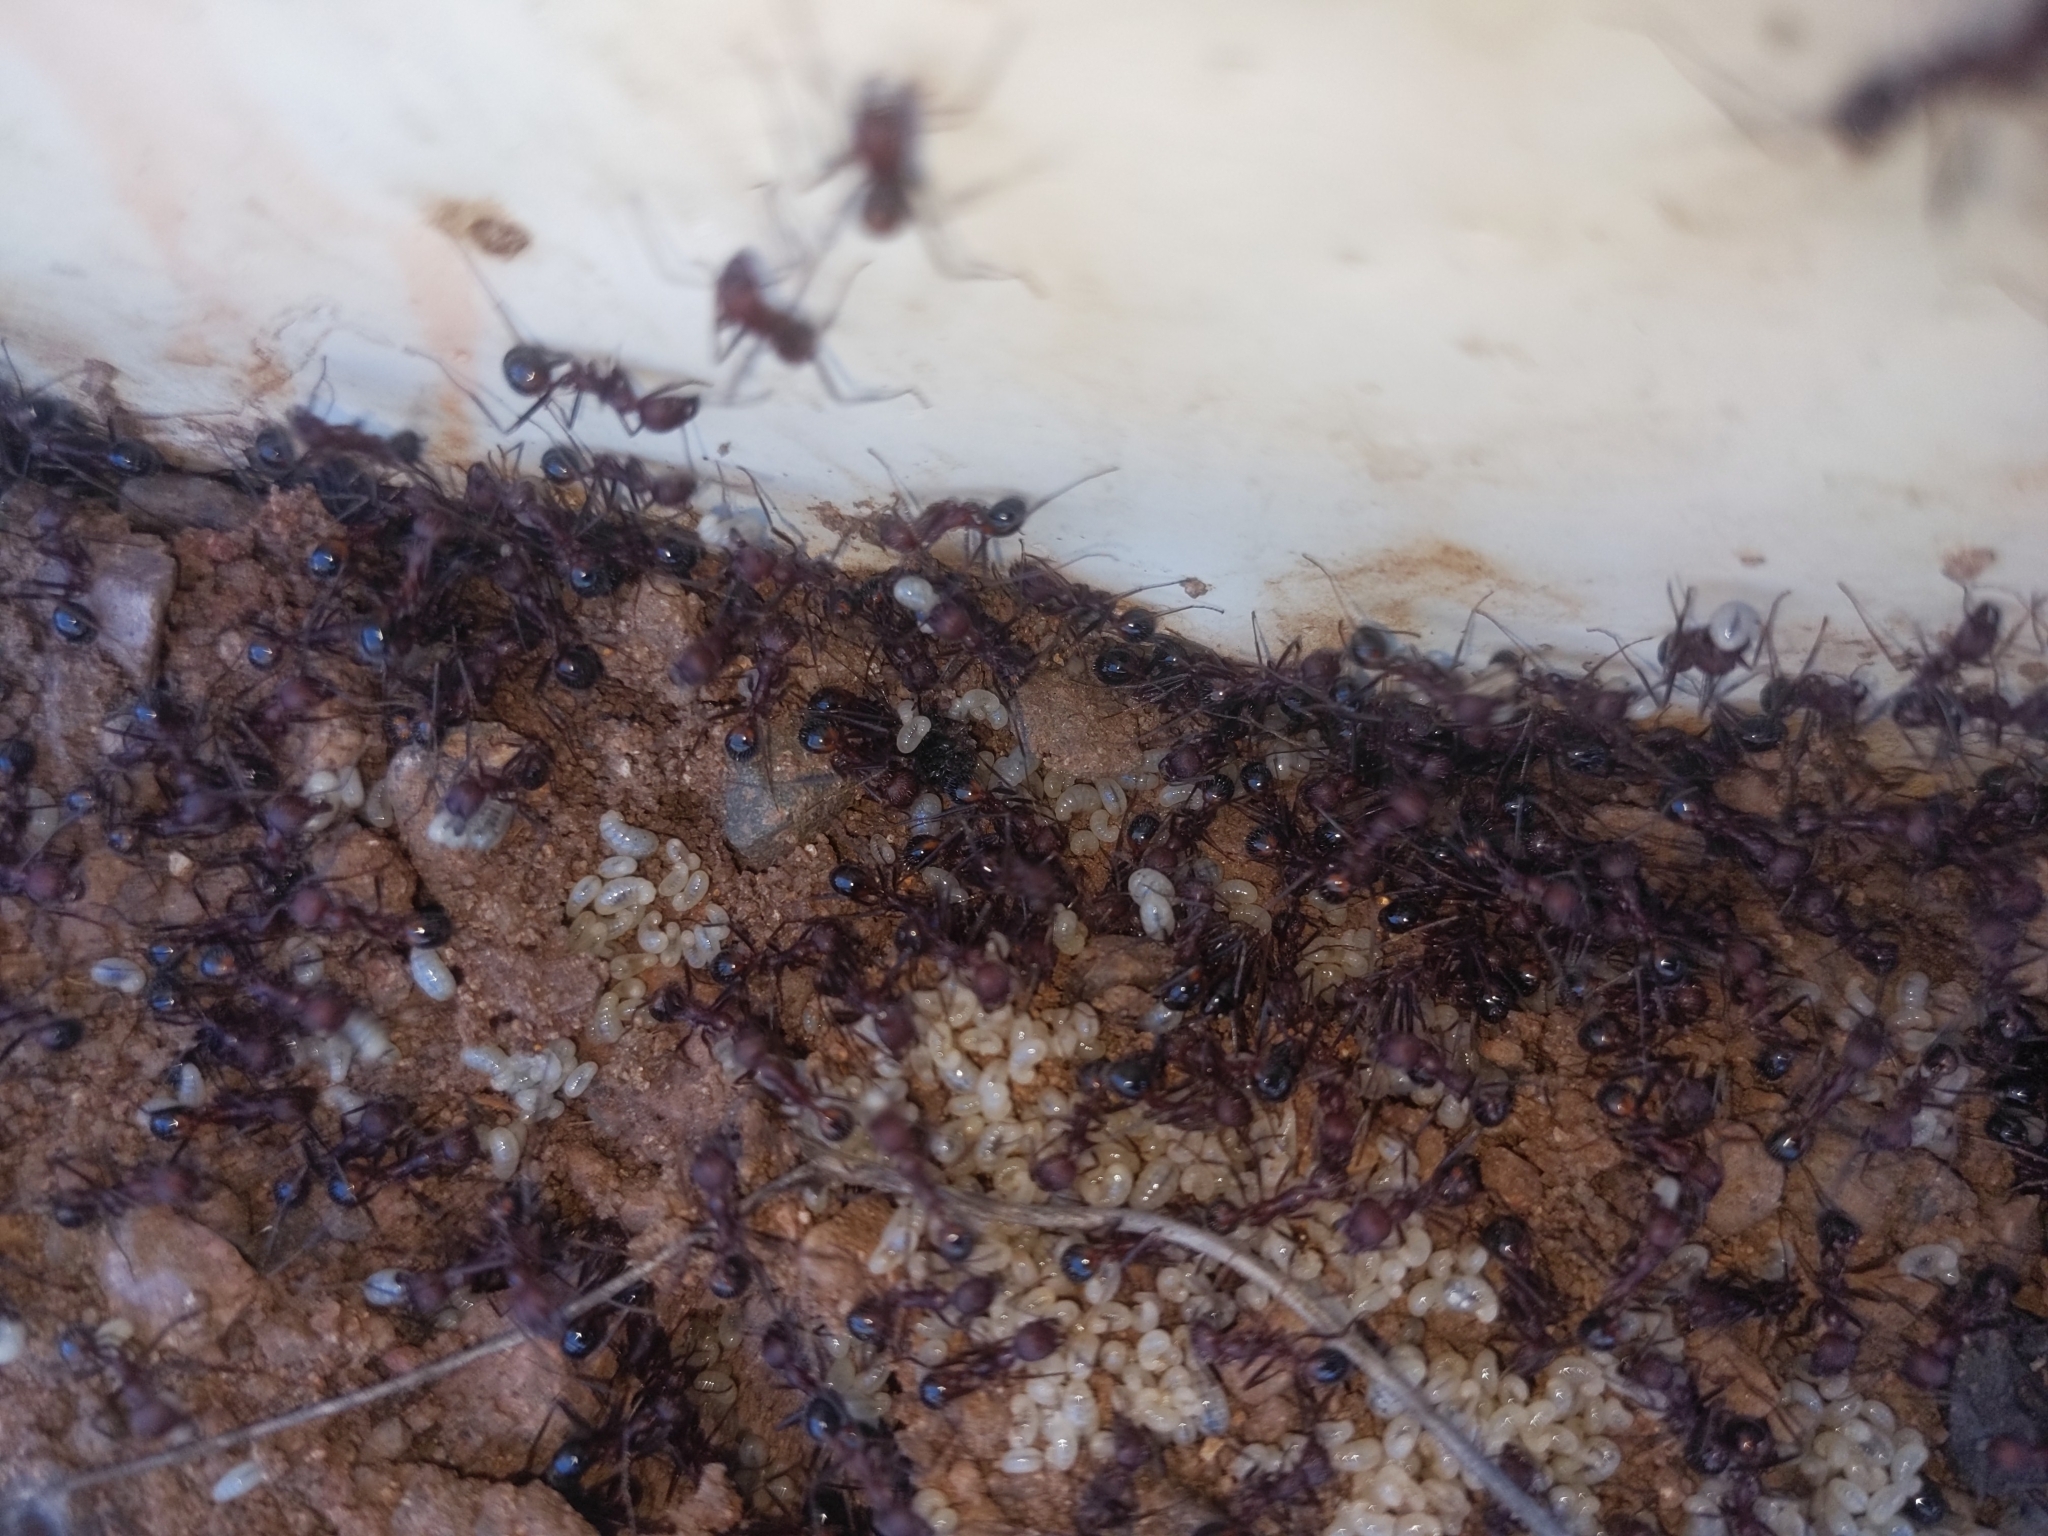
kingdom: Animalia
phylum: Arthropoda
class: Insecta
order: Hymenoptera
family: Formicidae
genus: Novomessor
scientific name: Novomessor albisetosa
